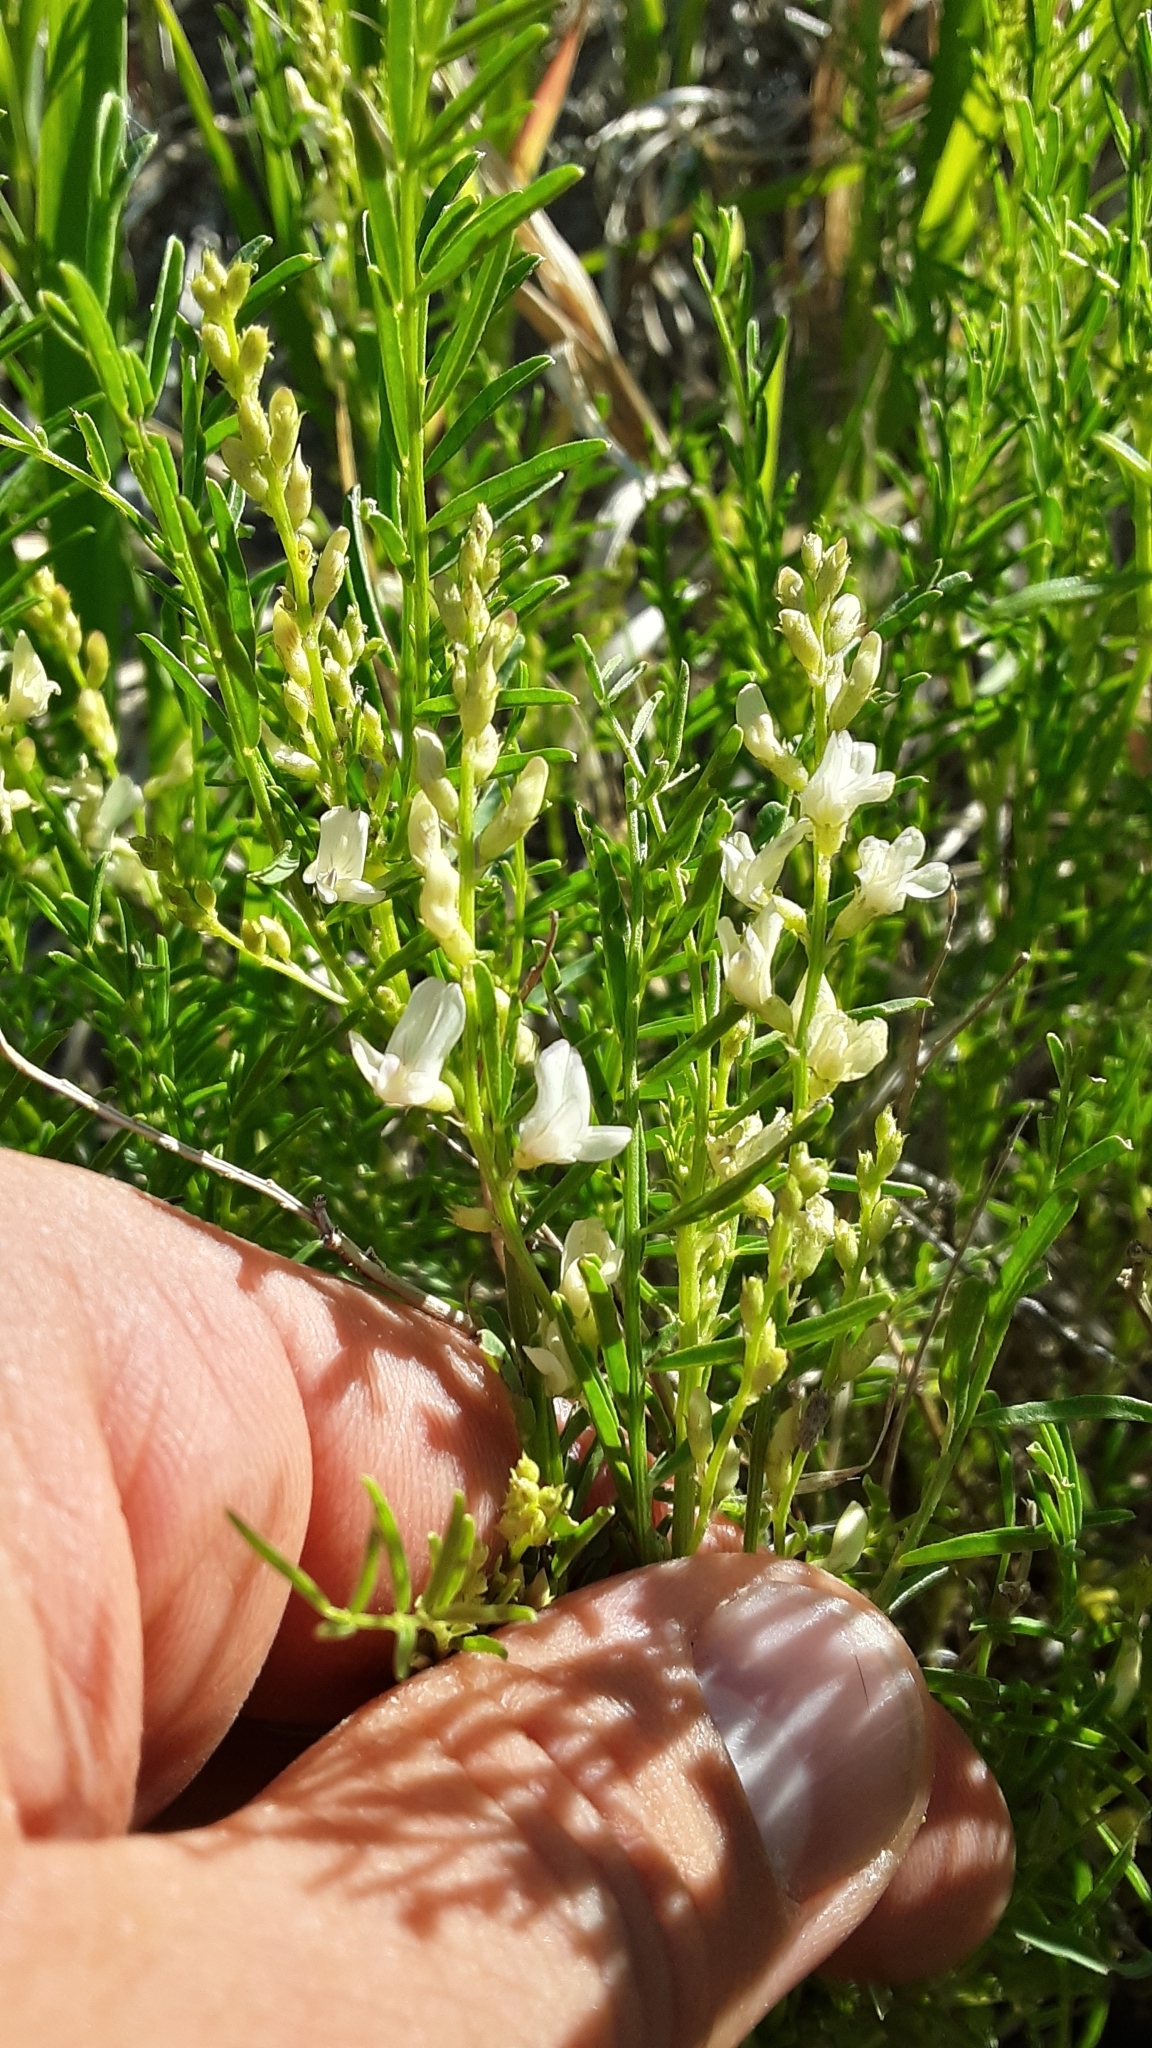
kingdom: Plantae
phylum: Tracheophyta
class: Magnoliopsida
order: Fabales
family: Fabaceae
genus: Astragalus
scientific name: Astragalus tenellus
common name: Pulse milk-vetch
